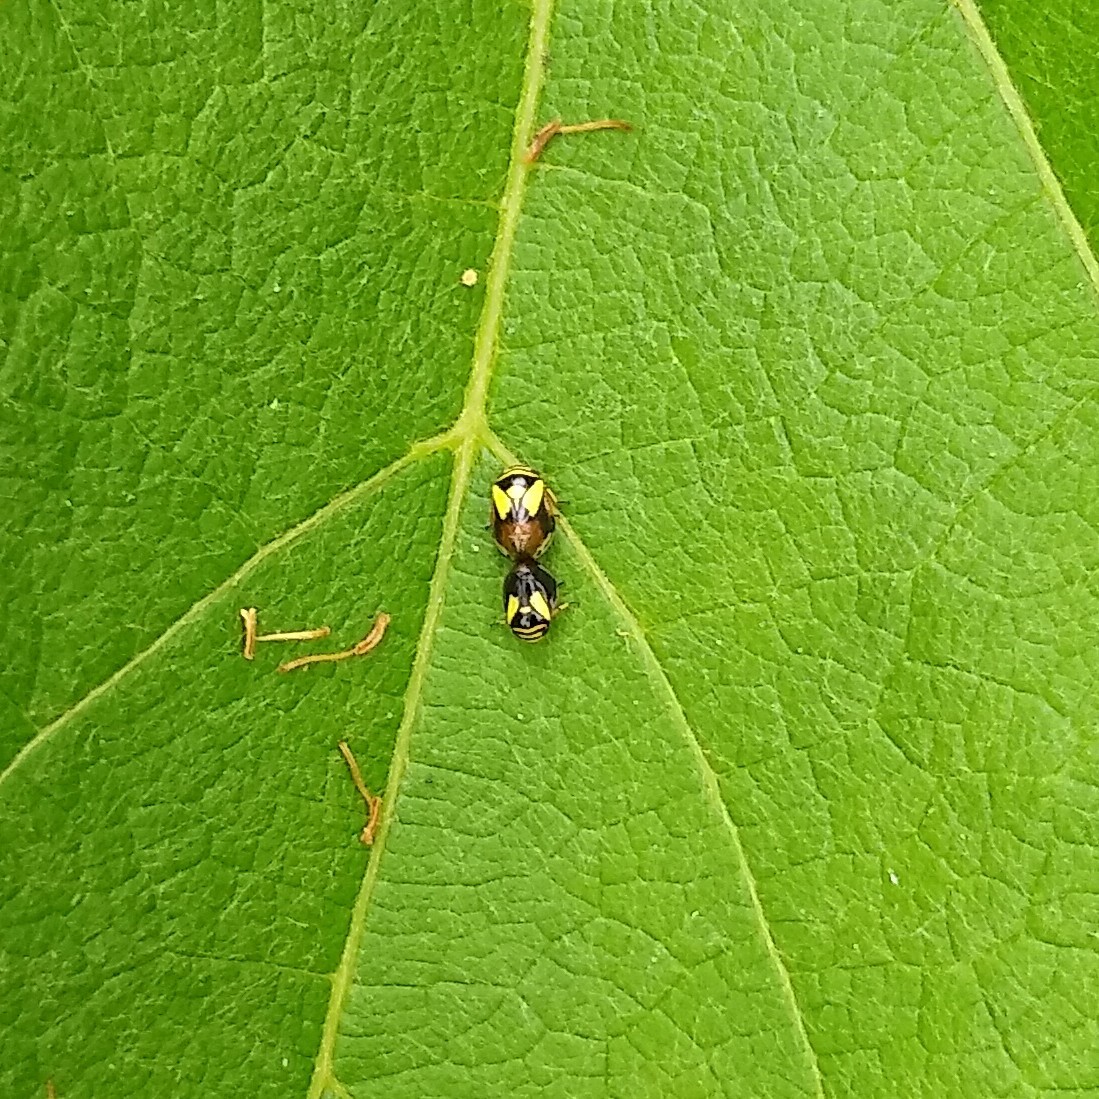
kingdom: Animalia
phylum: Arthropoda
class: Insecta
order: Hemiptera
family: Clastopteridae
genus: Clastoptera
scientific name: Clastoptera proteus
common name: Dogwood spittlebug
